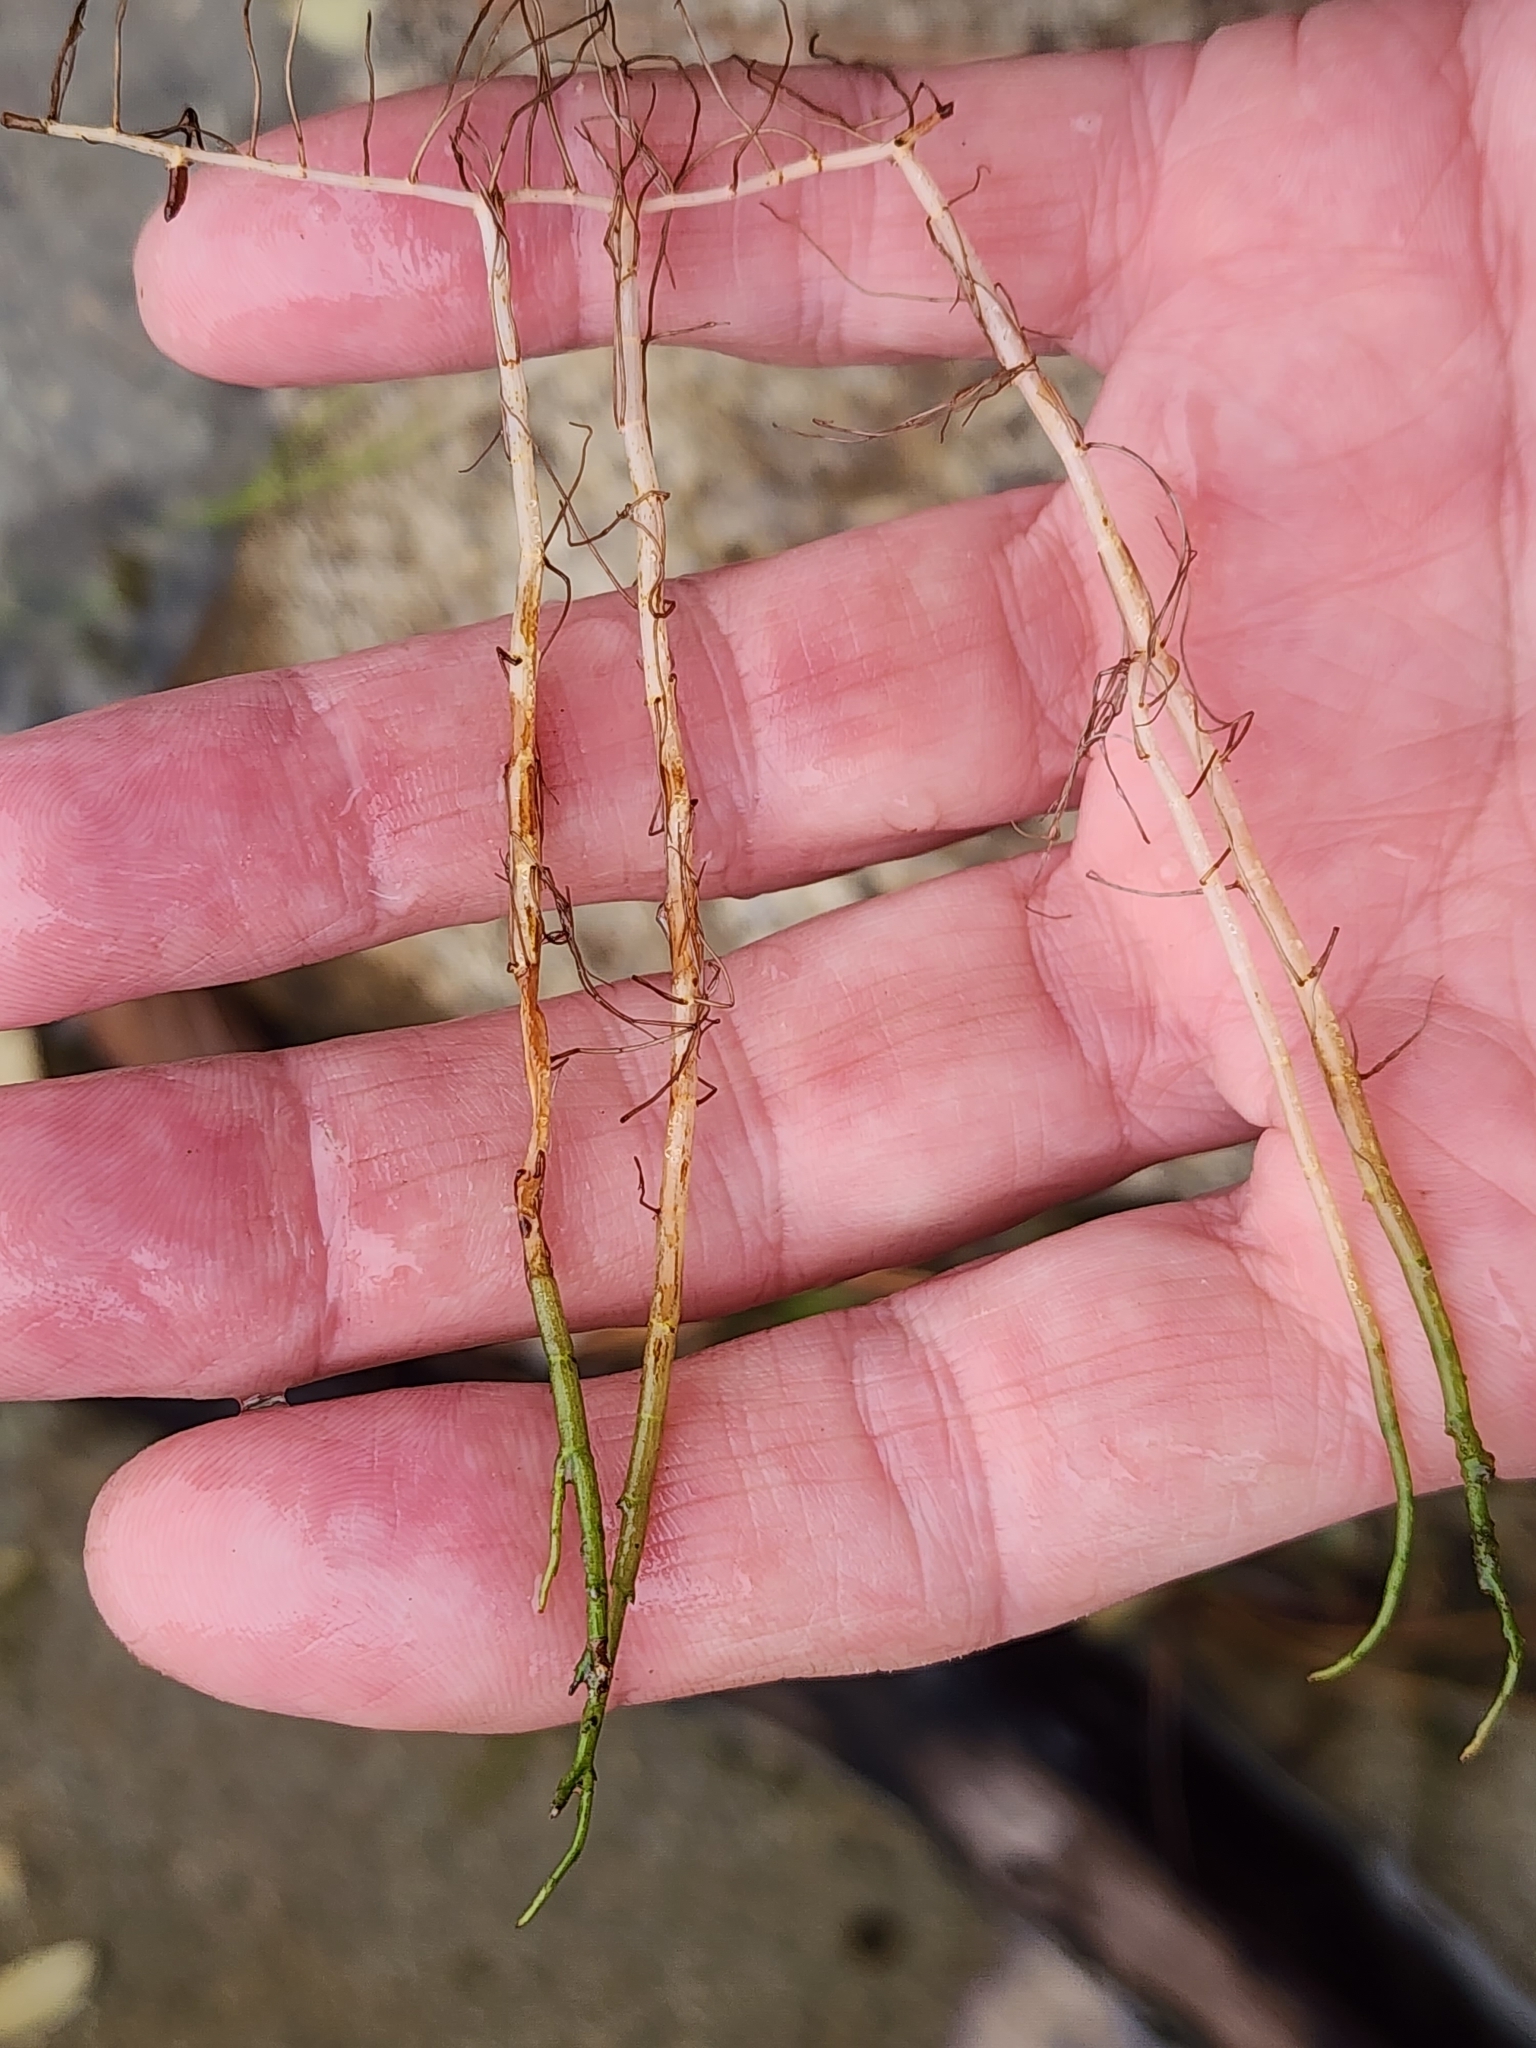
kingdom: Plantae
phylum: Tracheophyta
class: Magnoliopsida
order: Saxifragales
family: Haloragaceae
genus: Myriophyllum
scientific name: Myriophyllum tenellum
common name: Slender water-milfoil
